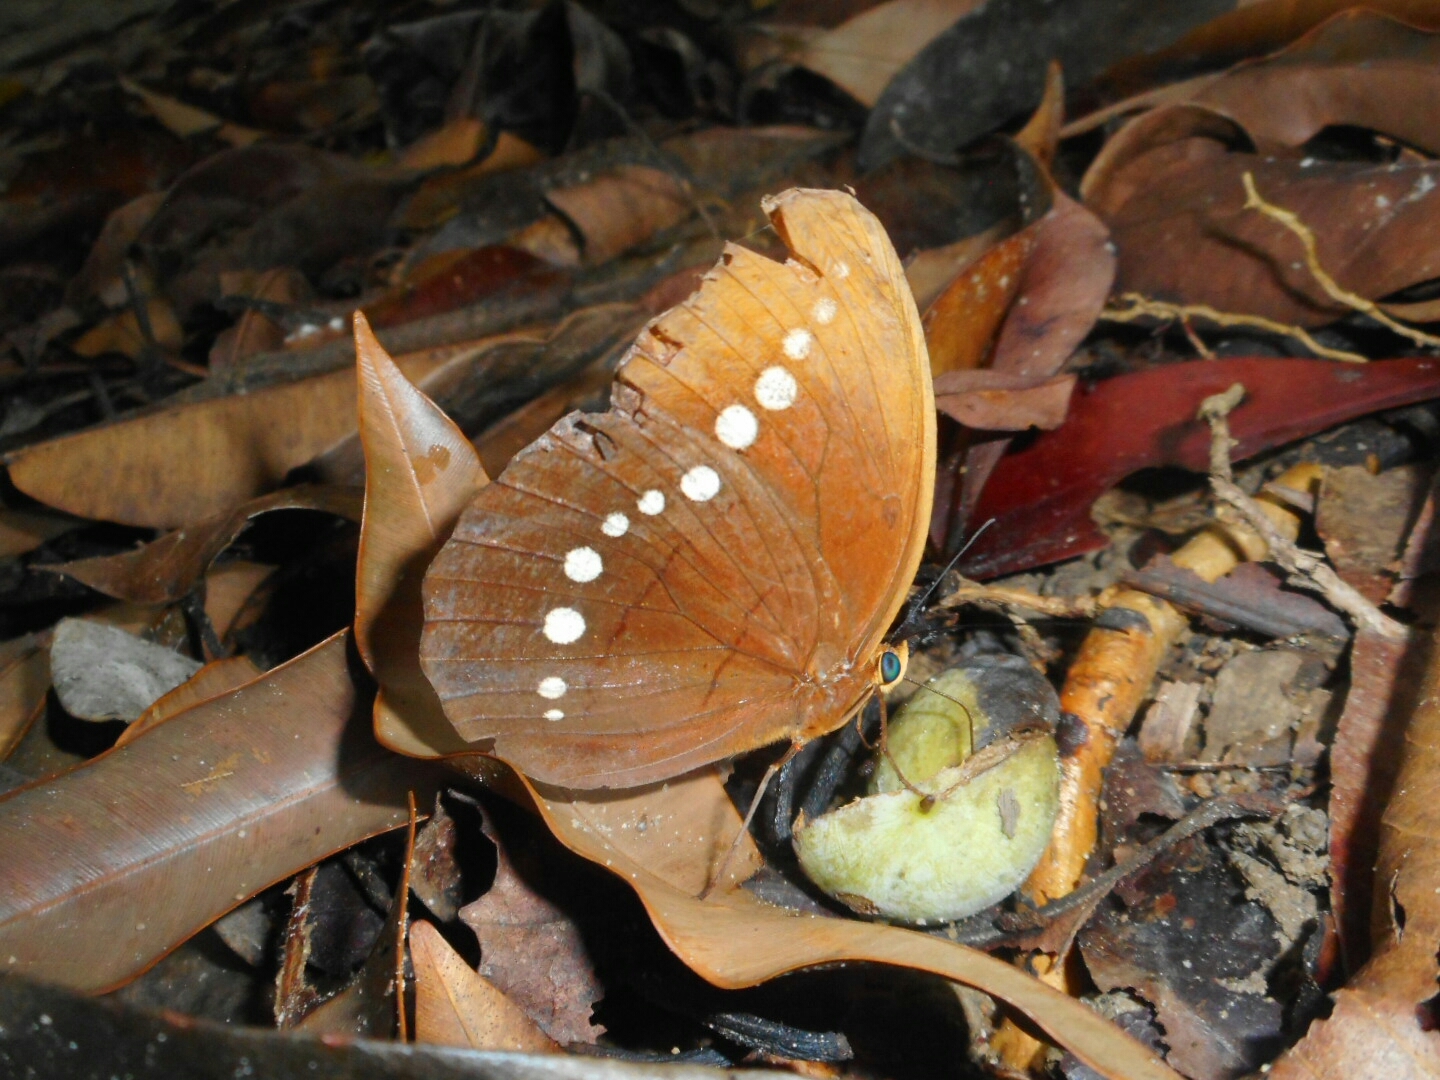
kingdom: Animalia
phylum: Arthropoda
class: Insecta
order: Lepidoptera
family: Nymphalidae
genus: Faunis
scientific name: Faunis eumeus
